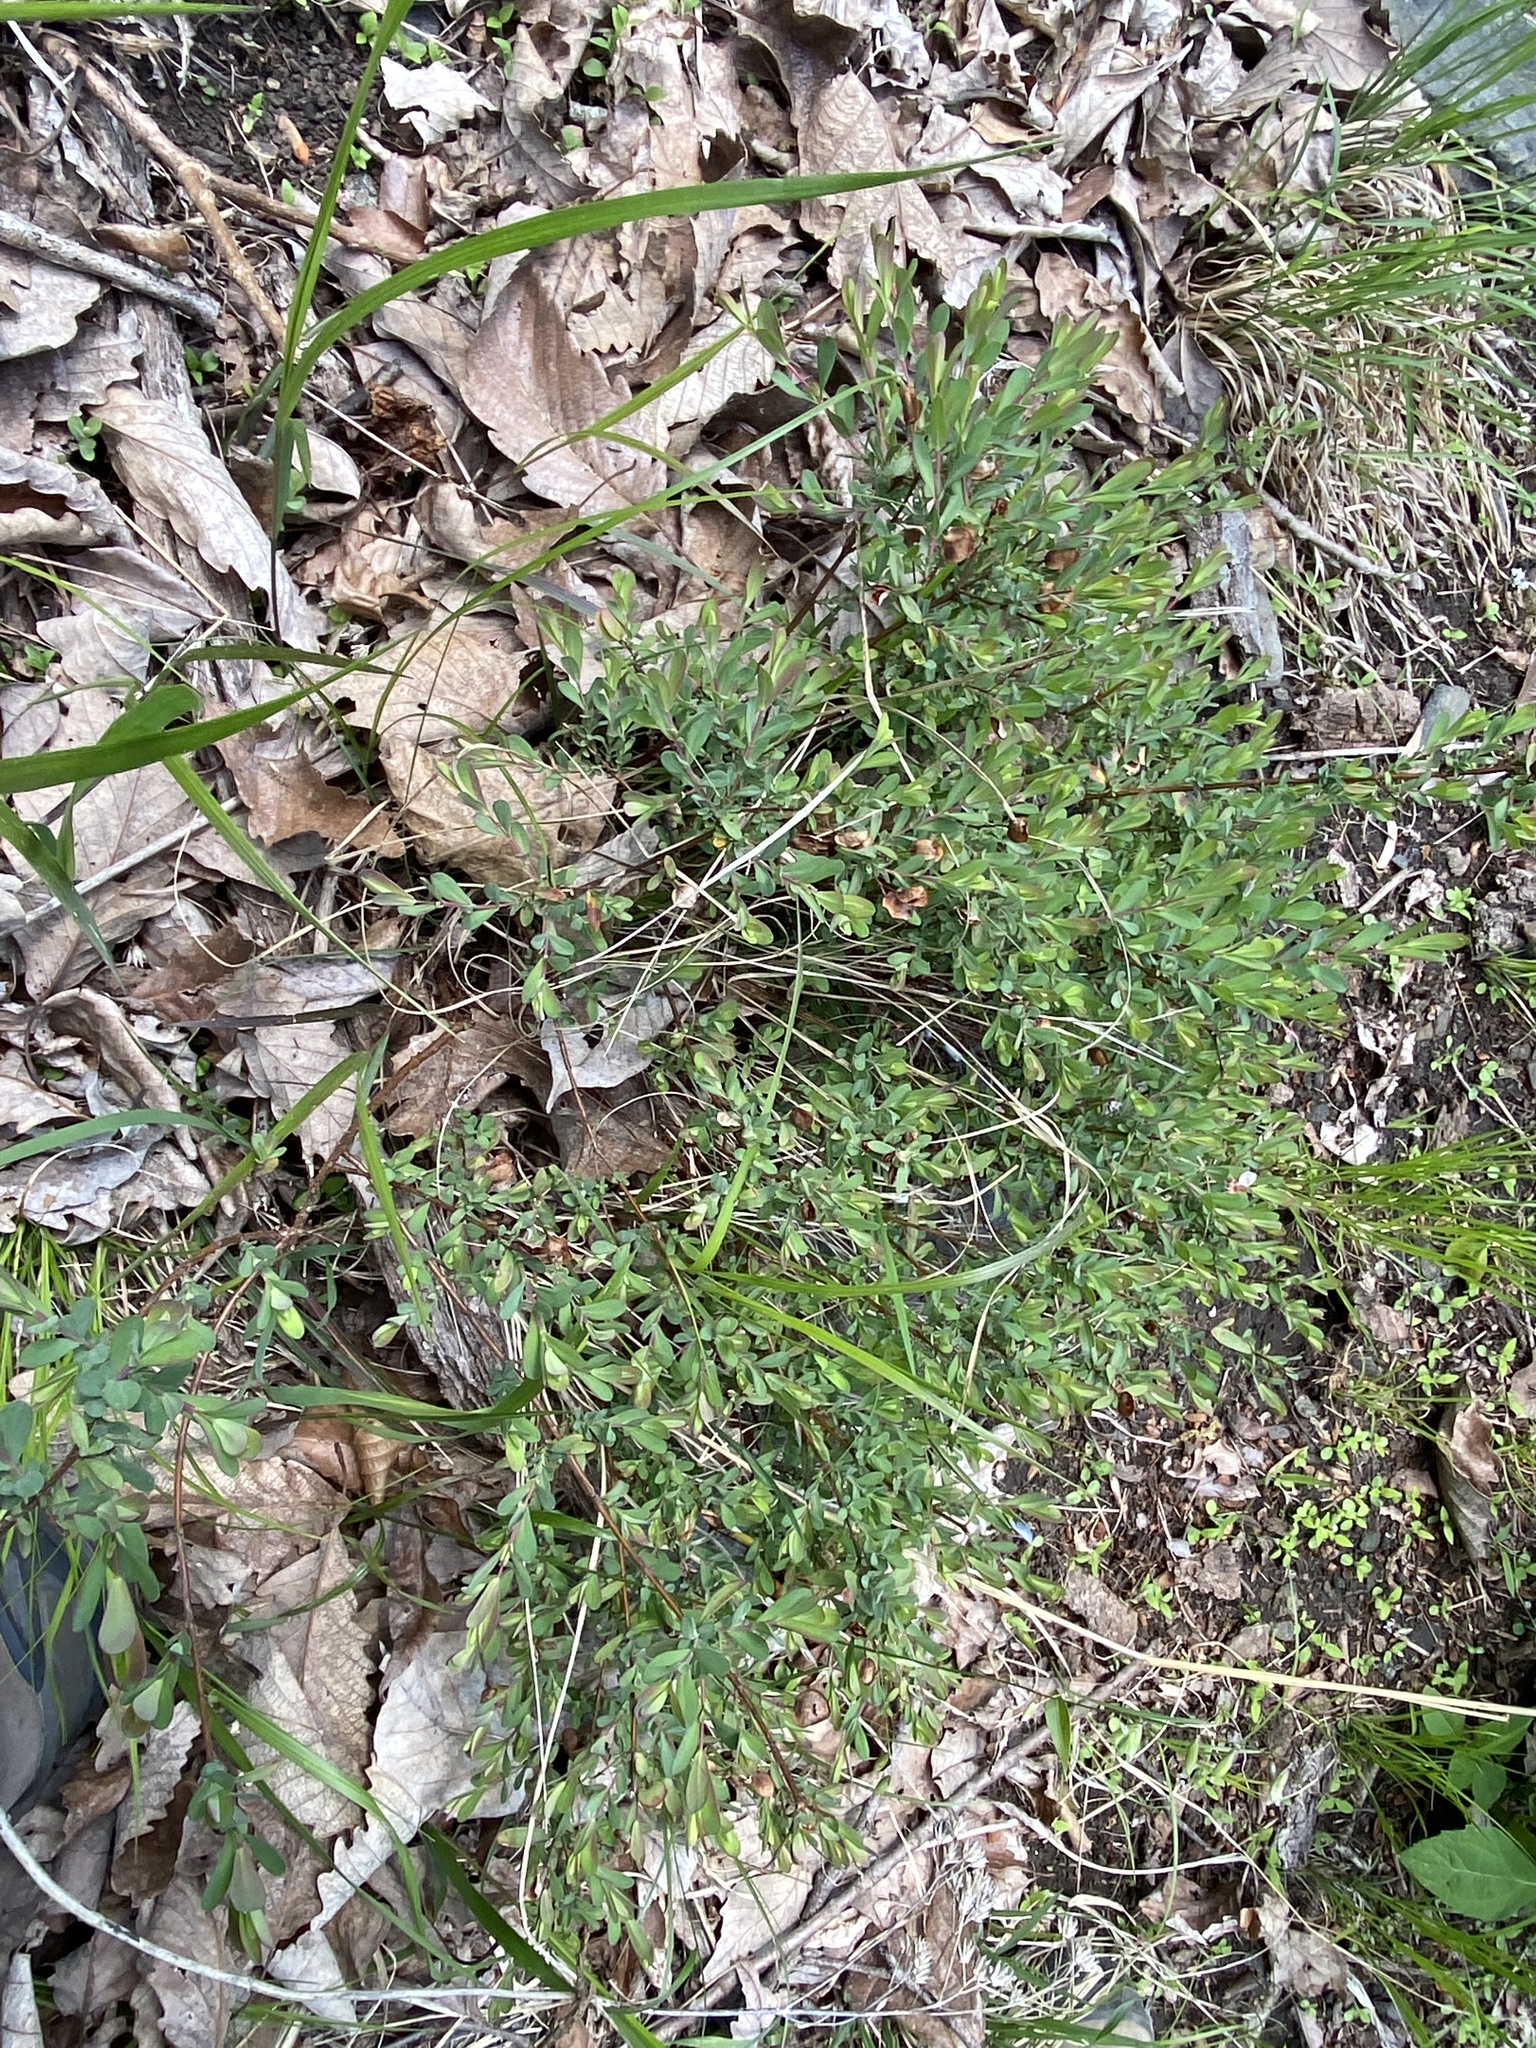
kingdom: Plantae
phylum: Tracheophyta
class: Magnoliopsida
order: Malpighiales
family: Hypericaceae
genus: Hypericum
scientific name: Hypericum hypericoides
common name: St. andrew's cross
